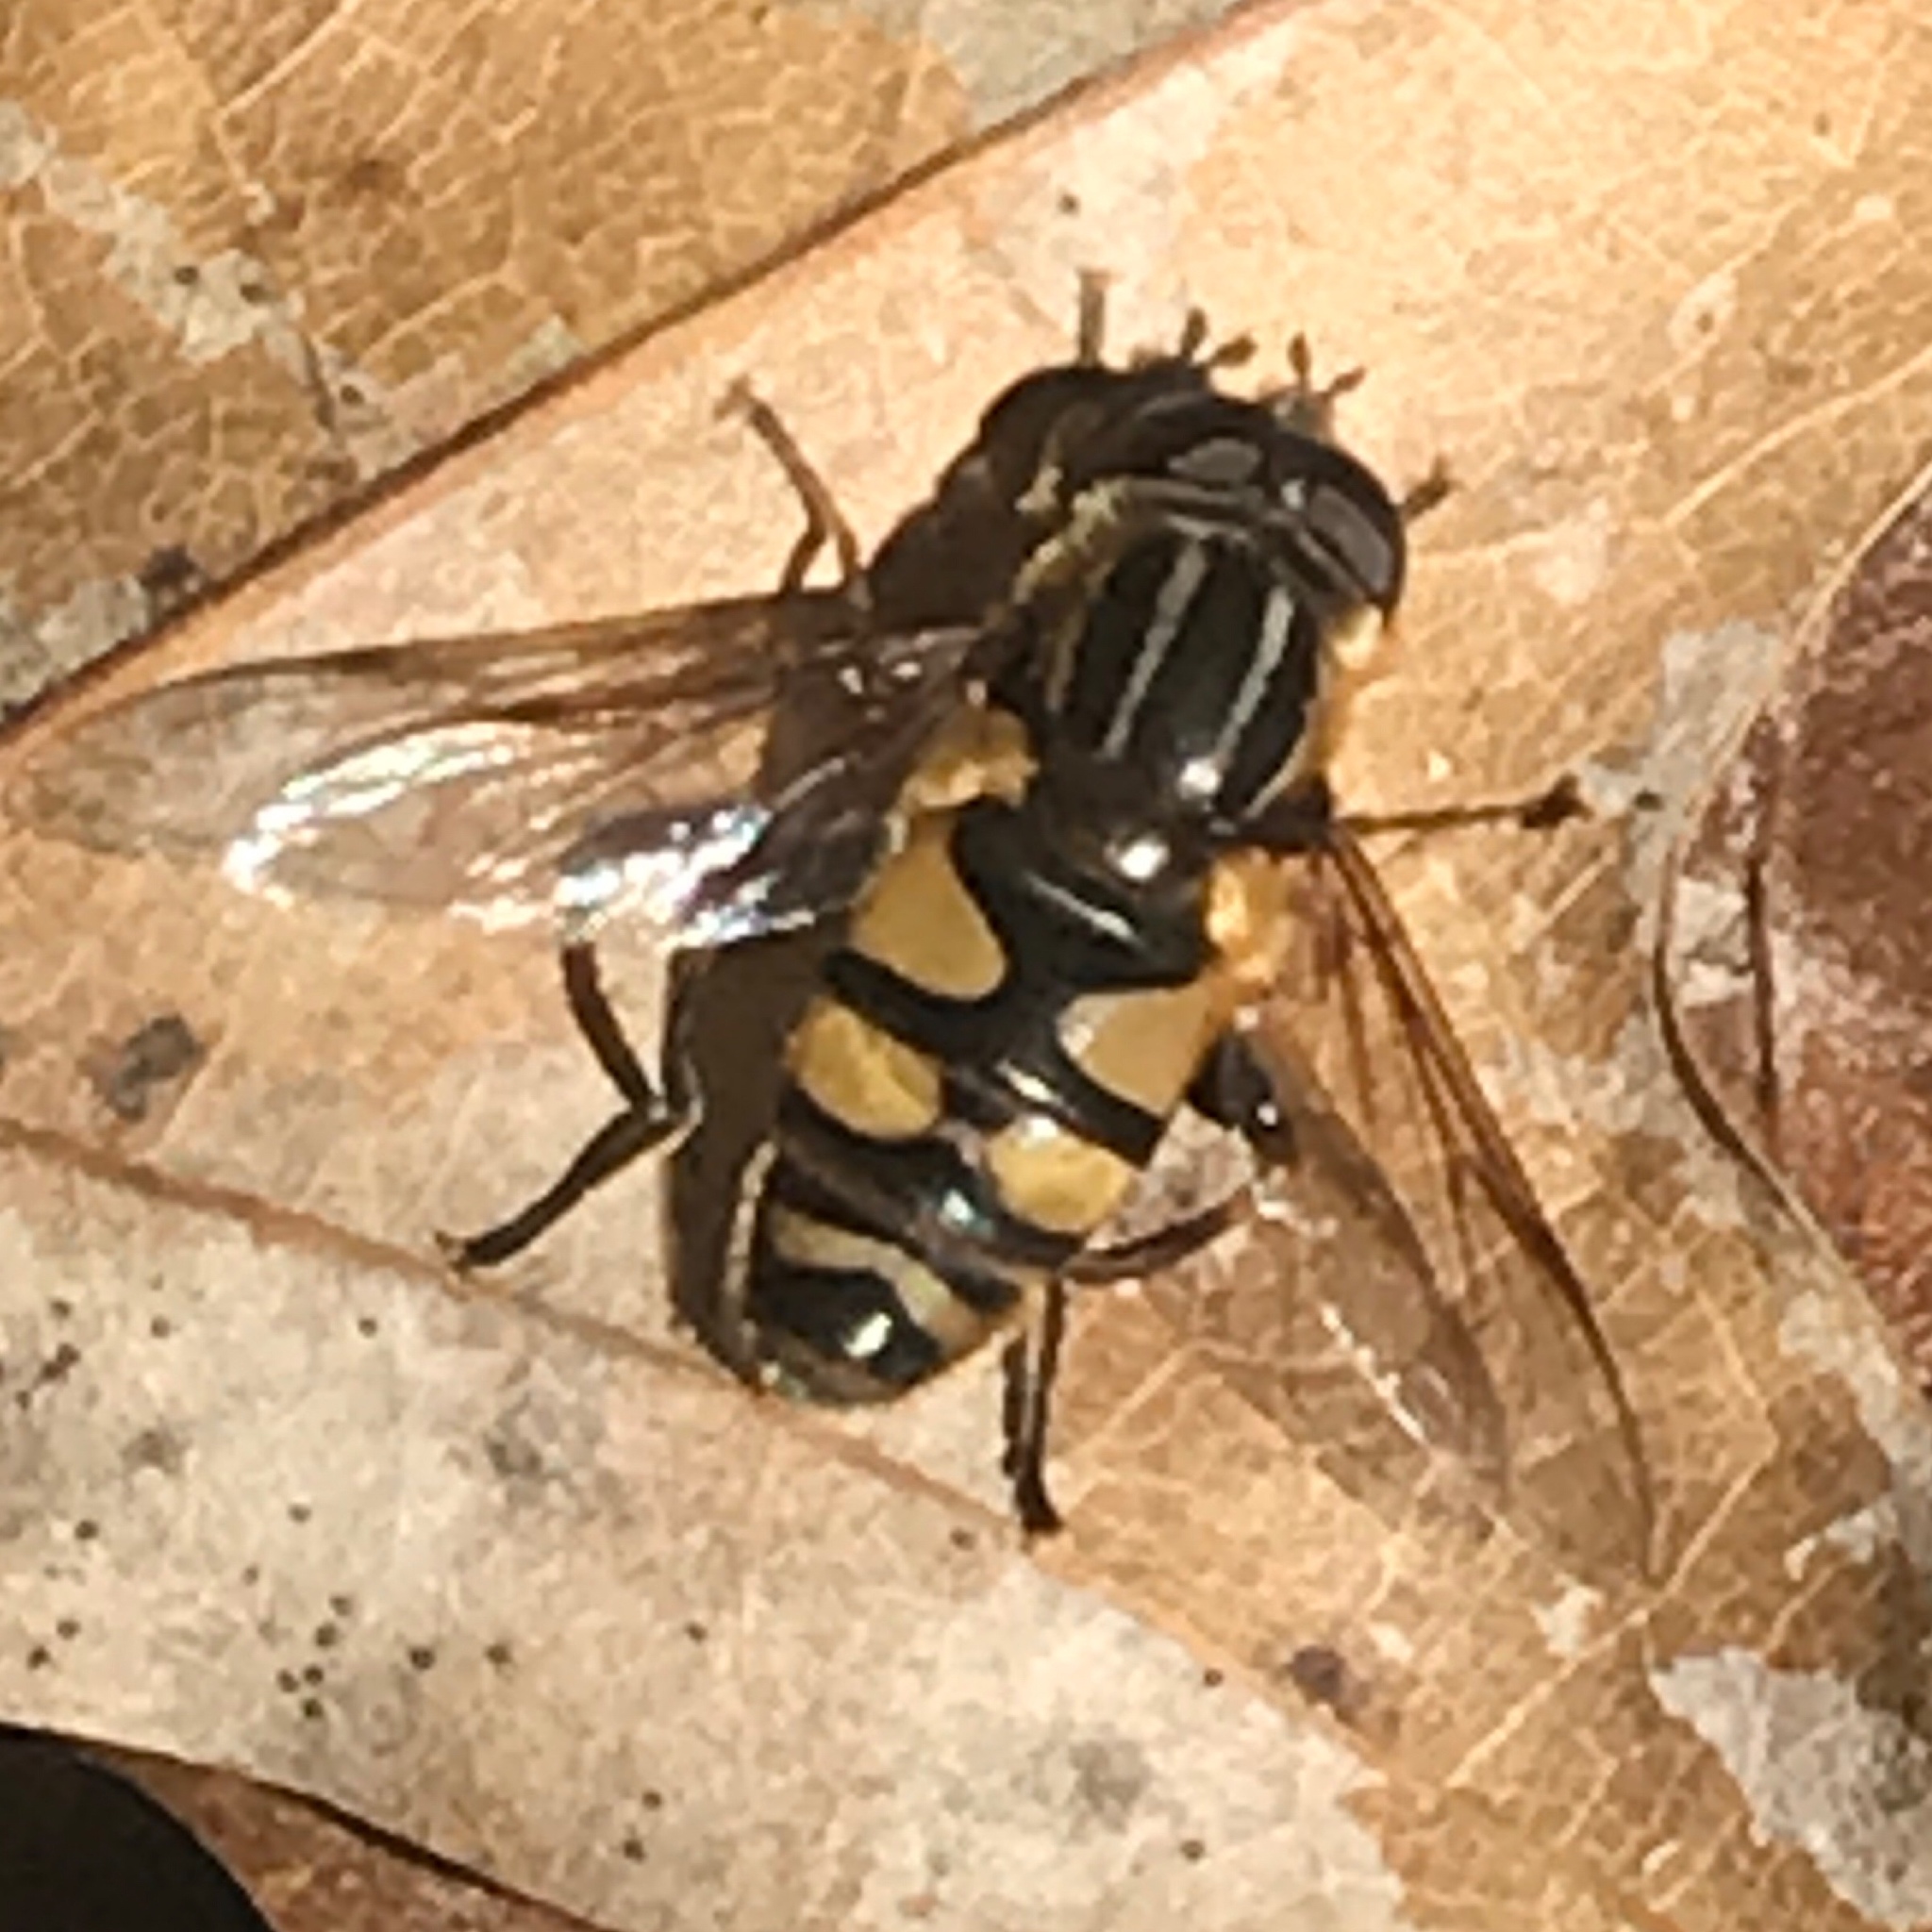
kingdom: Animalia
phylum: Arthropoda
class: Insecta
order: Diptera
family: Syrphidae
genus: Helophilus
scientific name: Helophilus fasciatus
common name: Narrow-headed marsh fly
